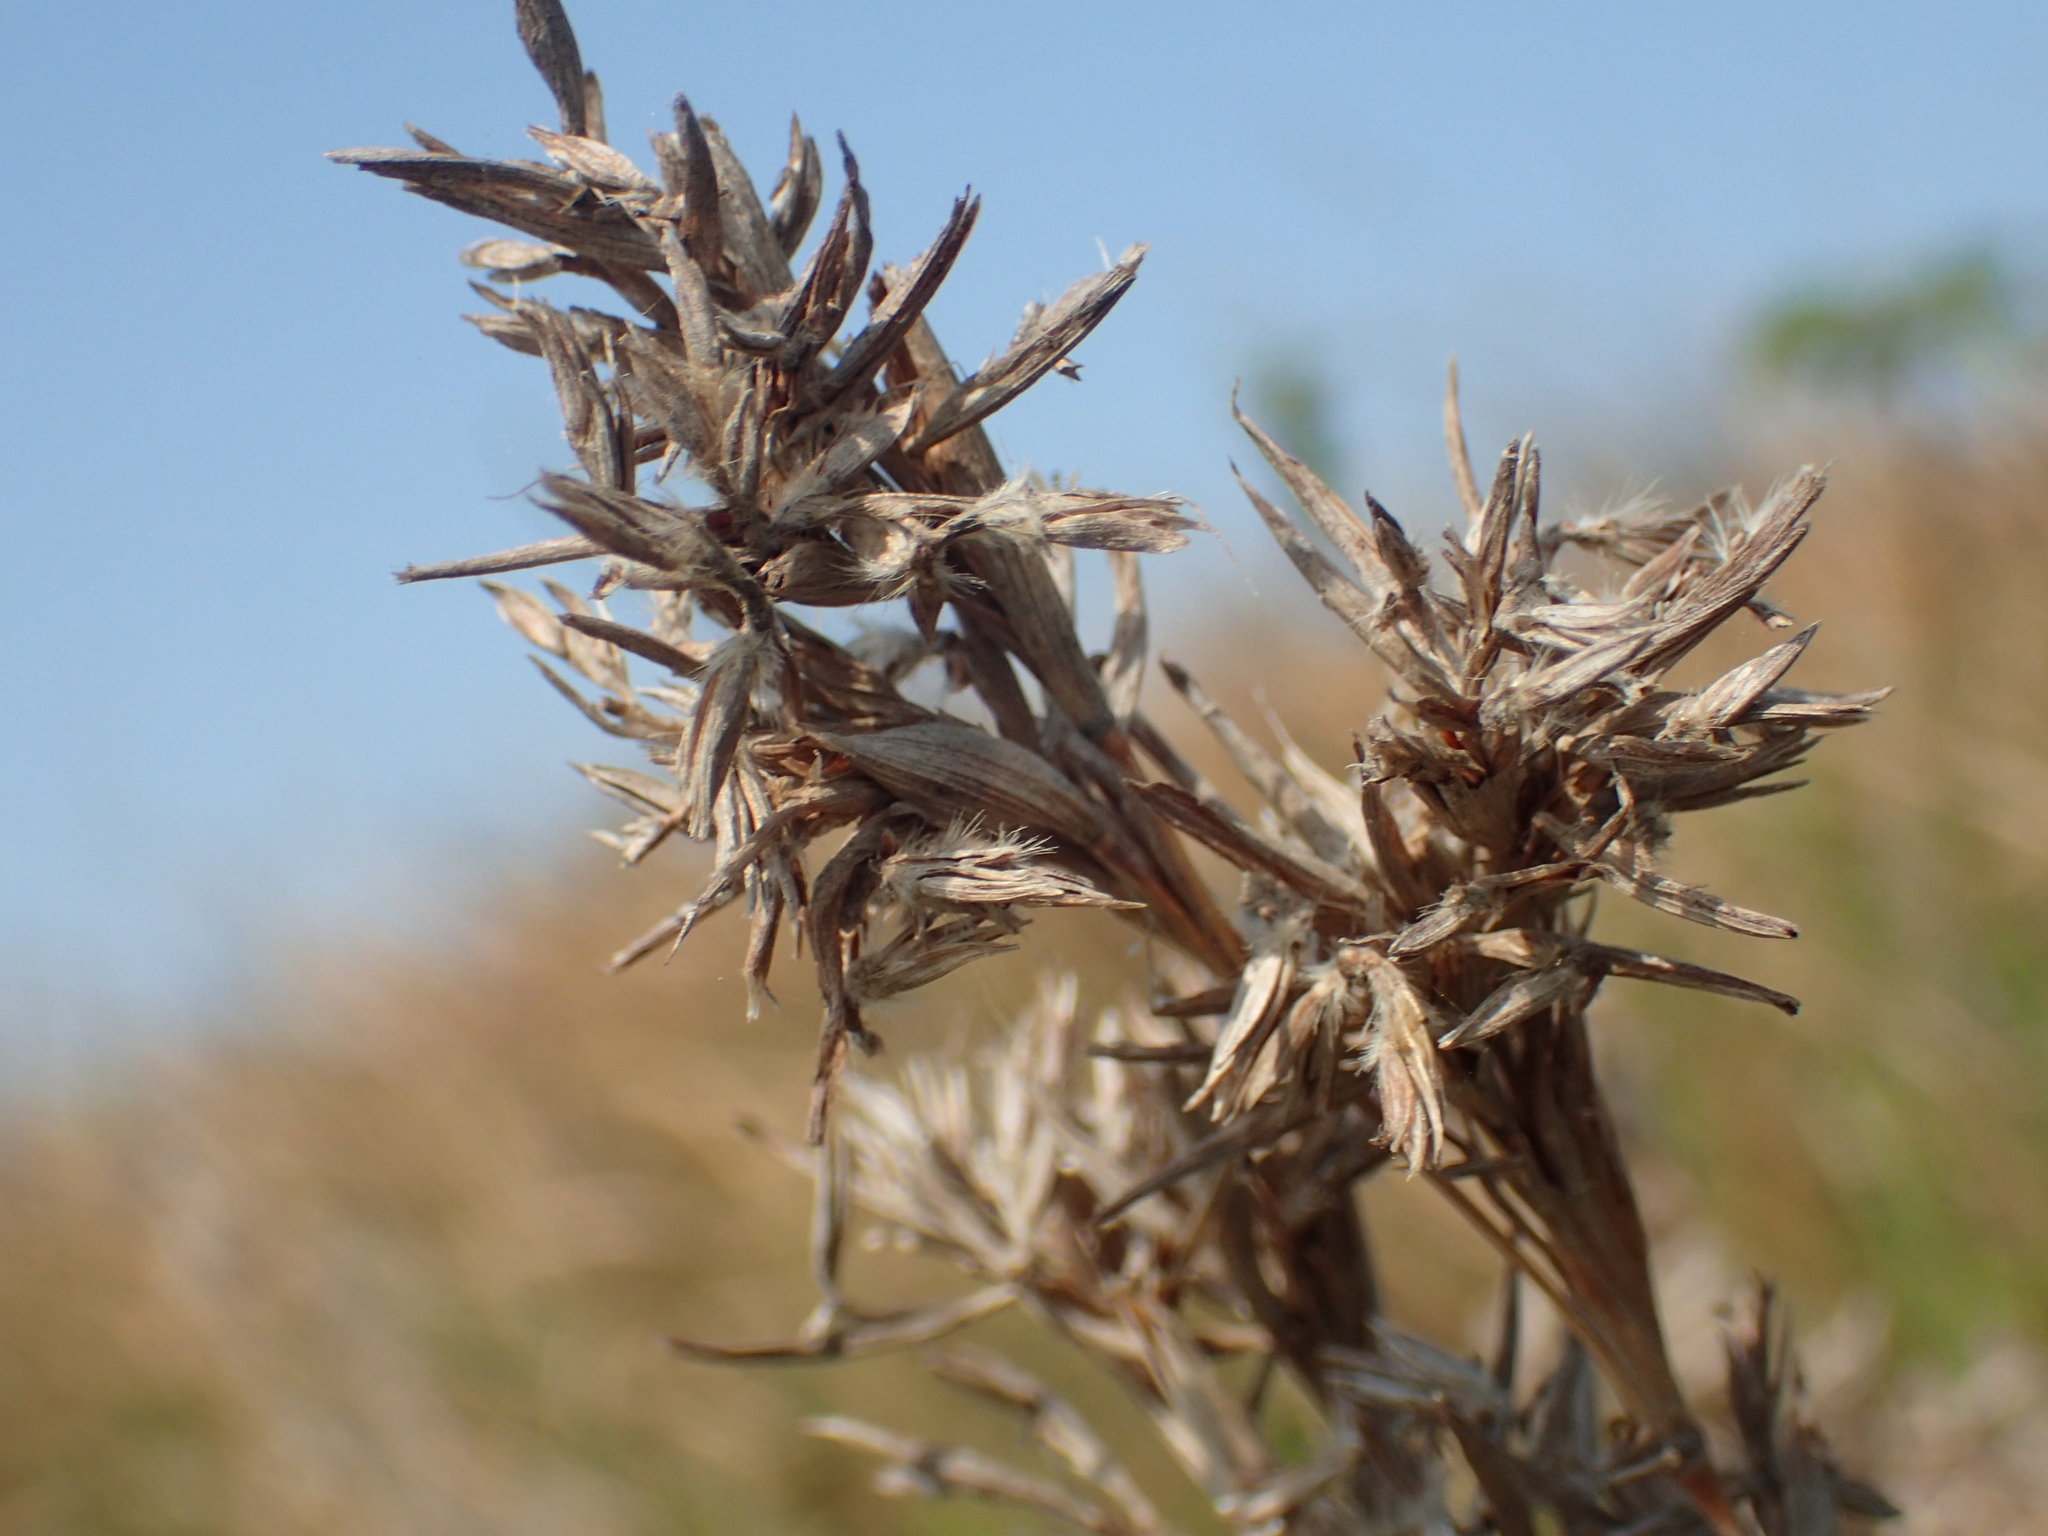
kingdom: Plantae
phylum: Tracheophyta
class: Liliopsida
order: Poales
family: Poaceae
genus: Cymbopogon
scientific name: Cymbopogon tortilis
